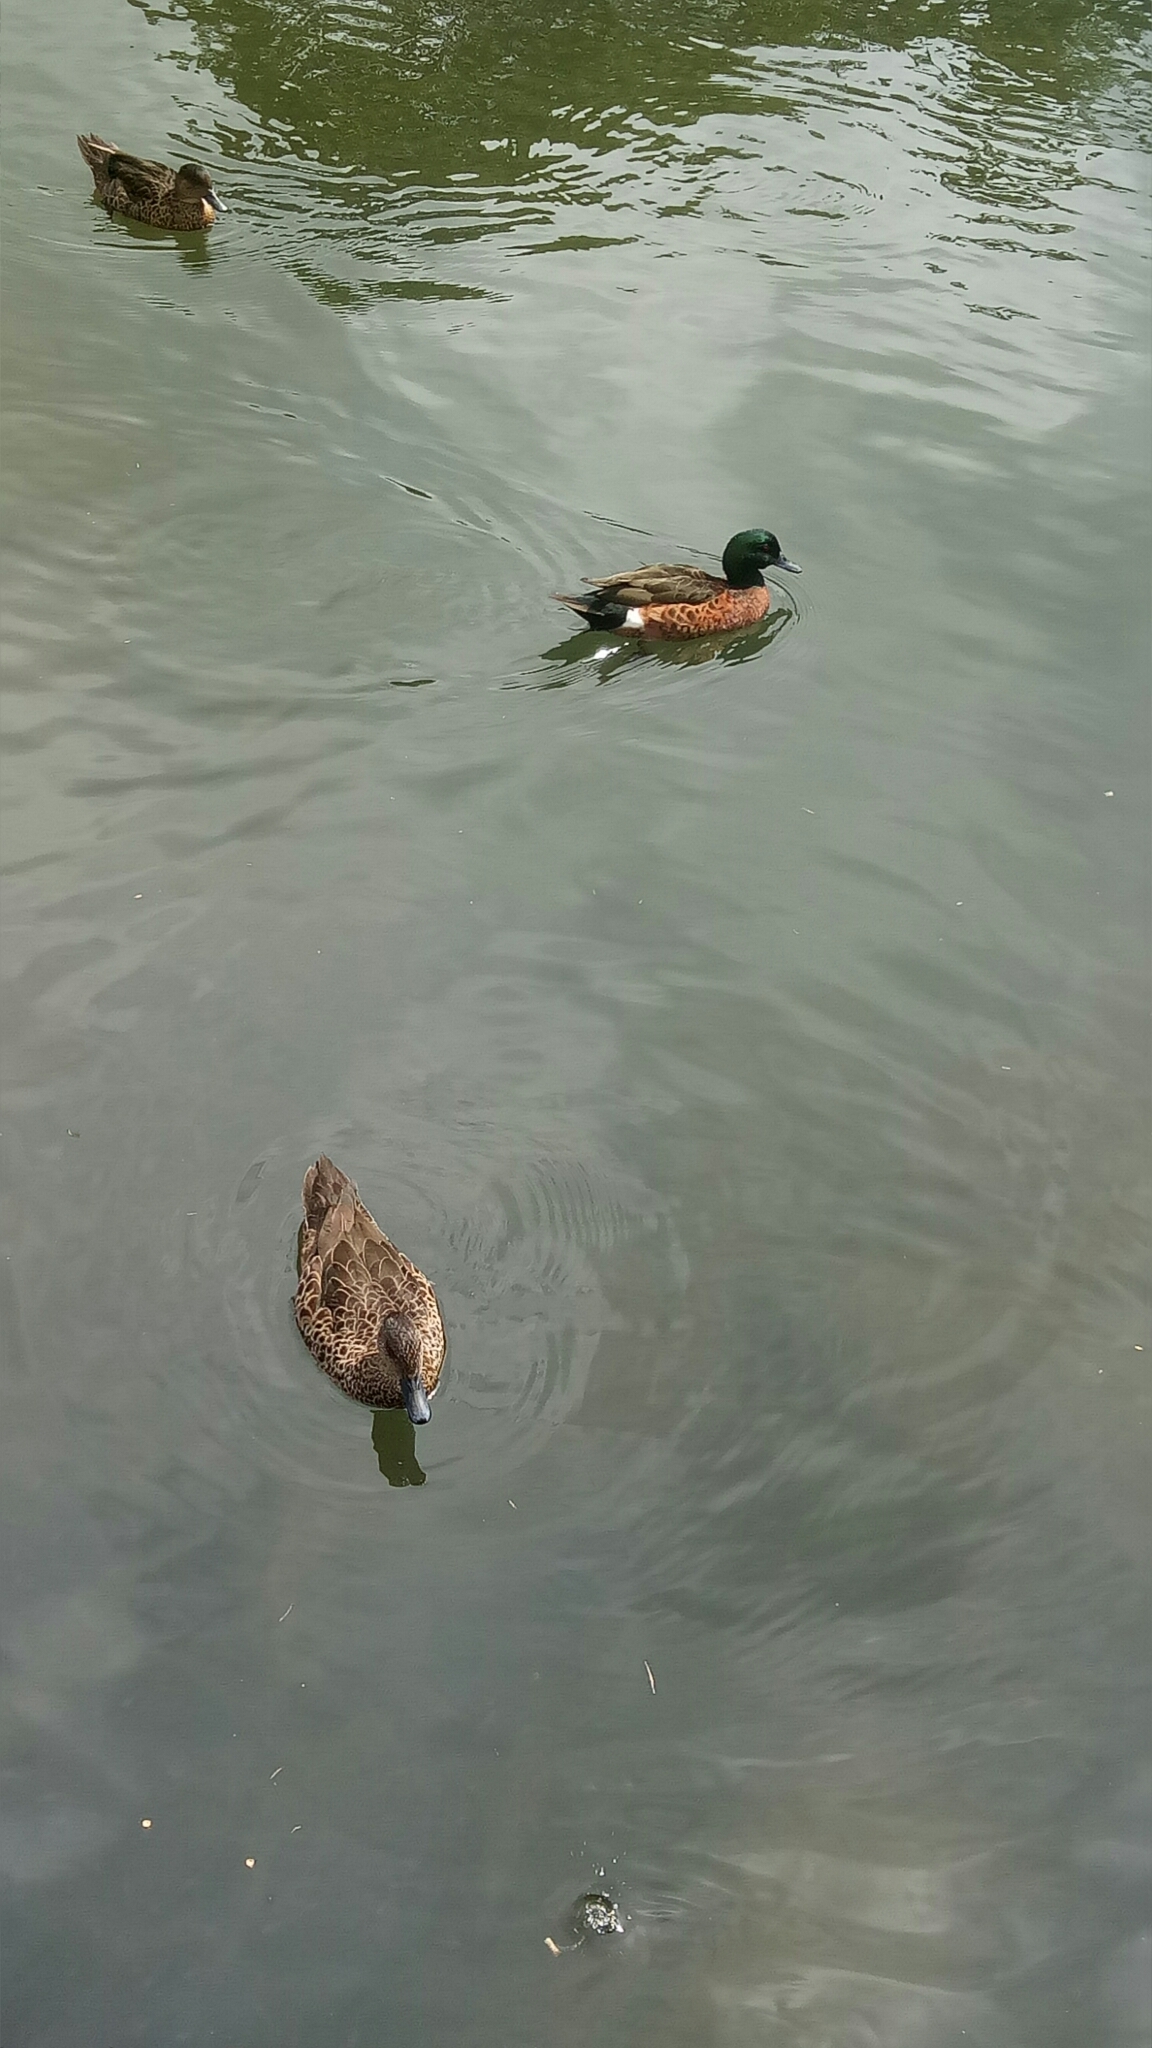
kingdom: Animalia
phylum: Chordata
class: Aves
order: Anseriformes
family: Anatidae
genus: Anas
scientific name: Anas castanea
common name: Chestnut teal
